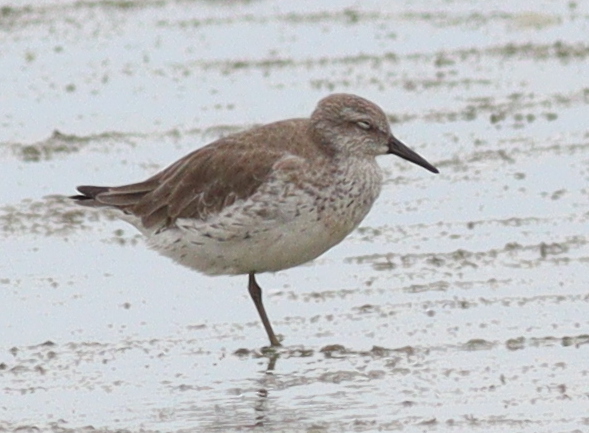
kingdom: Animalia
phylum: Chordata
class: Aves
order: Charadriiformes
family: Scolopacidae
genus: Calidris
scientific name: Calidris canutus
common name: Red knot
